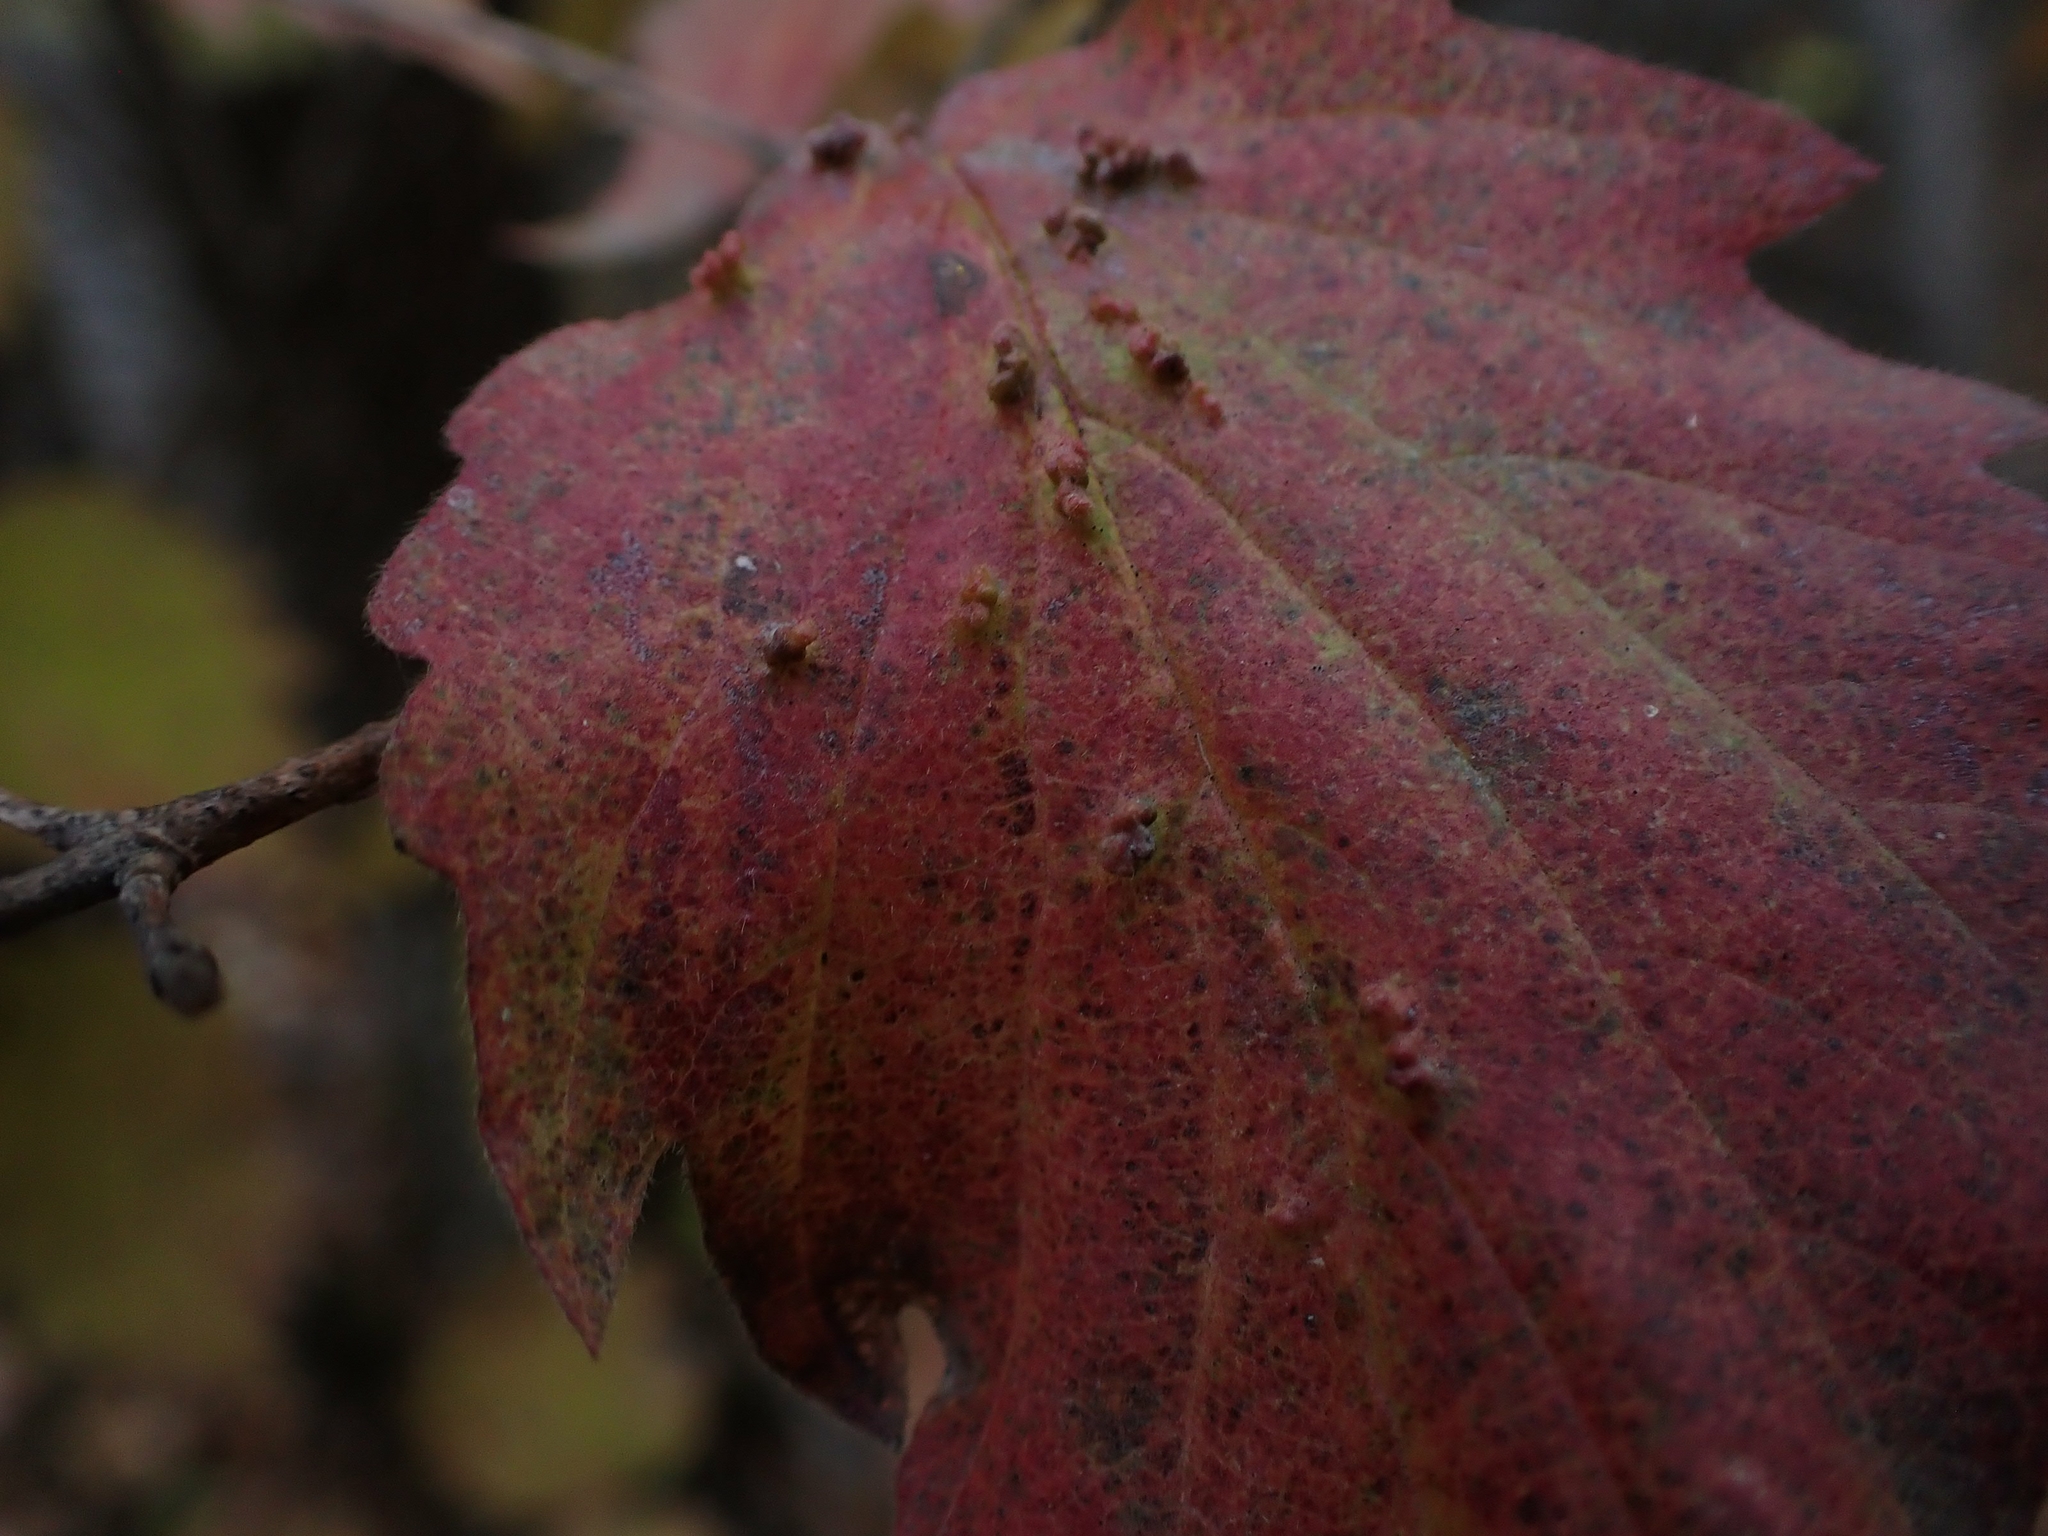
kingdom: Animalia
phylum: Arthropoda
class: Arachnida
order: Trombidiformes
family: Eriophyidae
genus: Eriophyes
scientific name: Eriophyes
